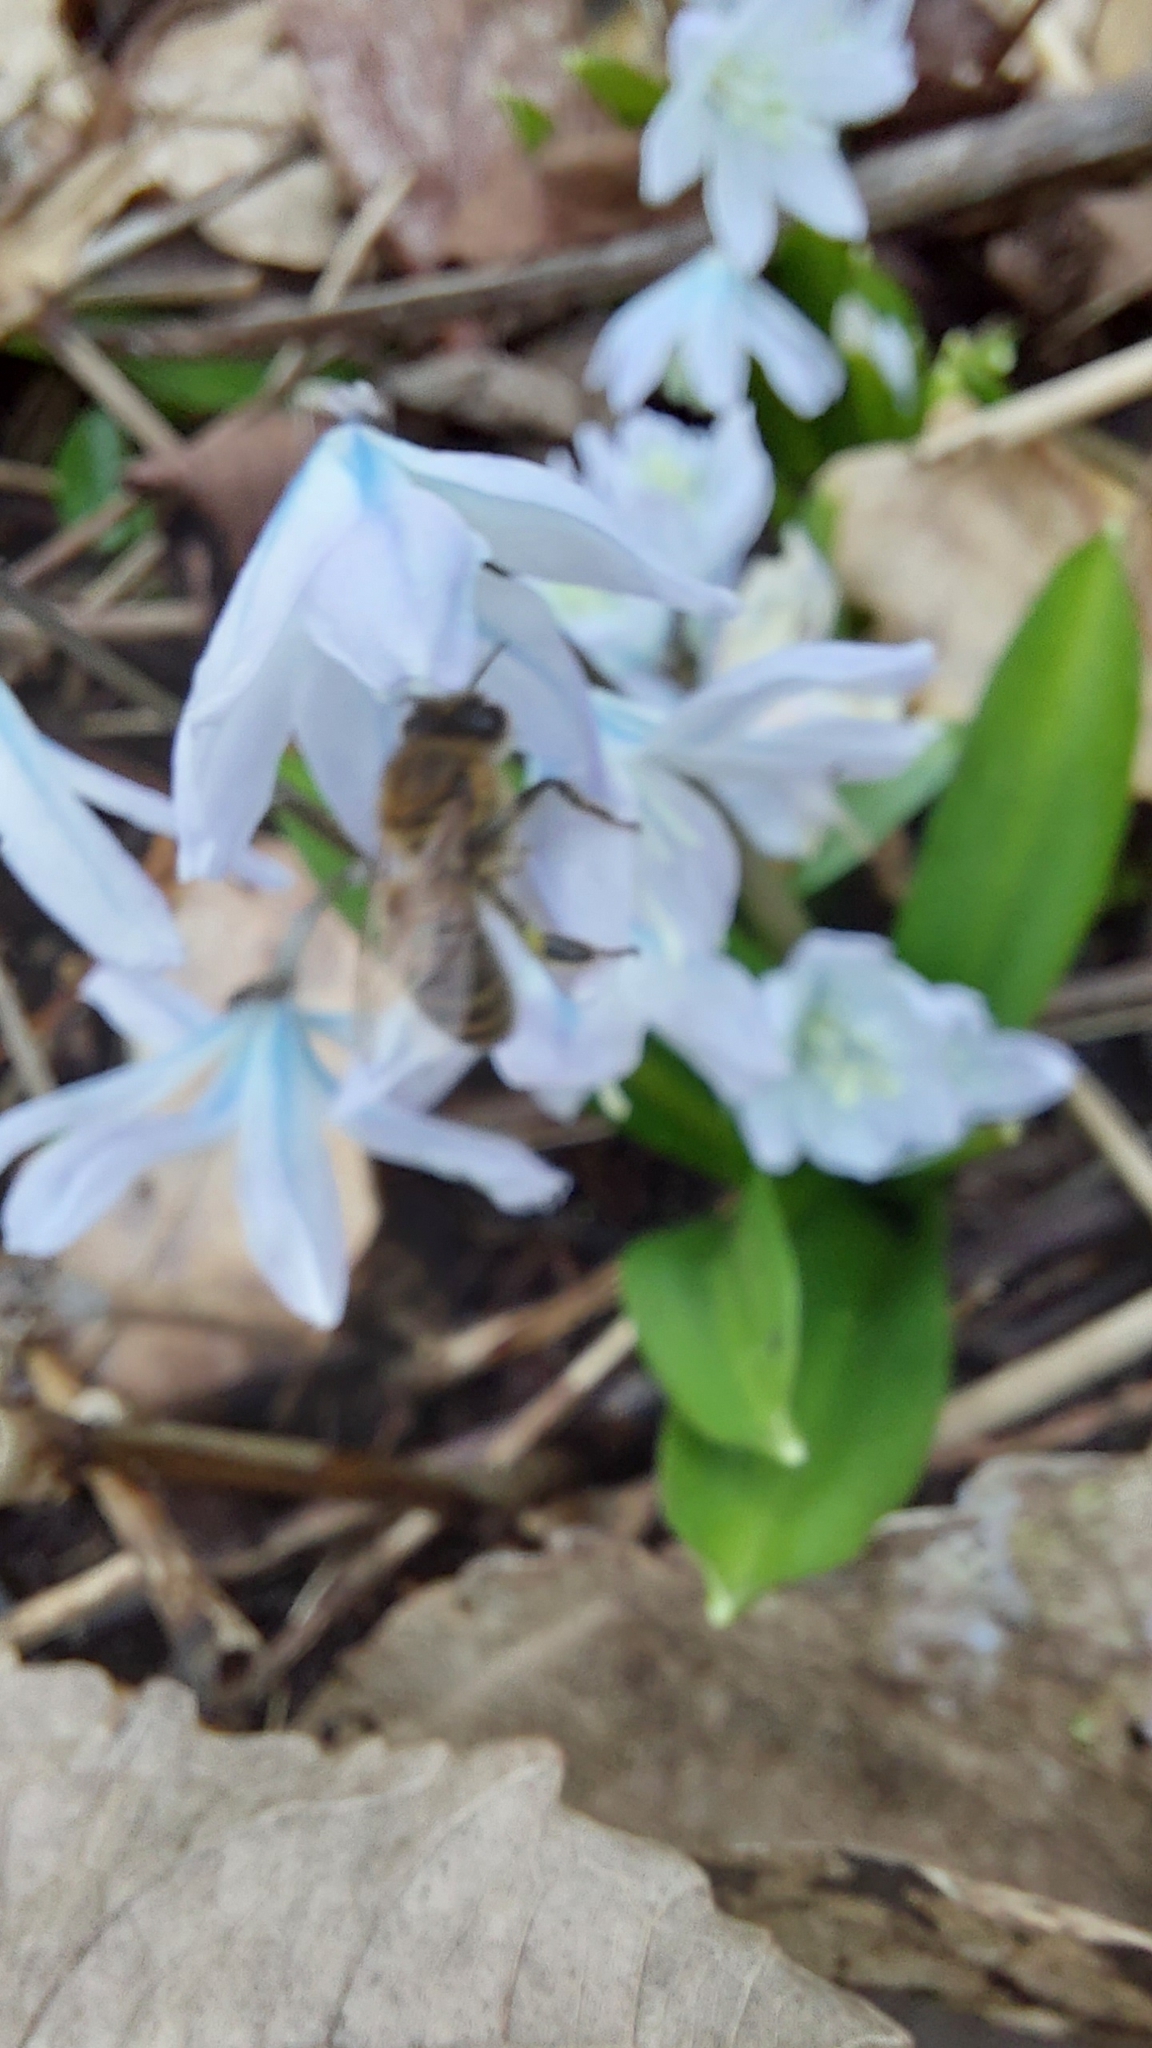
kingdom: Animalia
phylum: Arthropoda
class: Insecta
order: Hymenoptera
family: Apidae
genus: Apis
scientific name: Apis mellifera
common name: Honey bee
